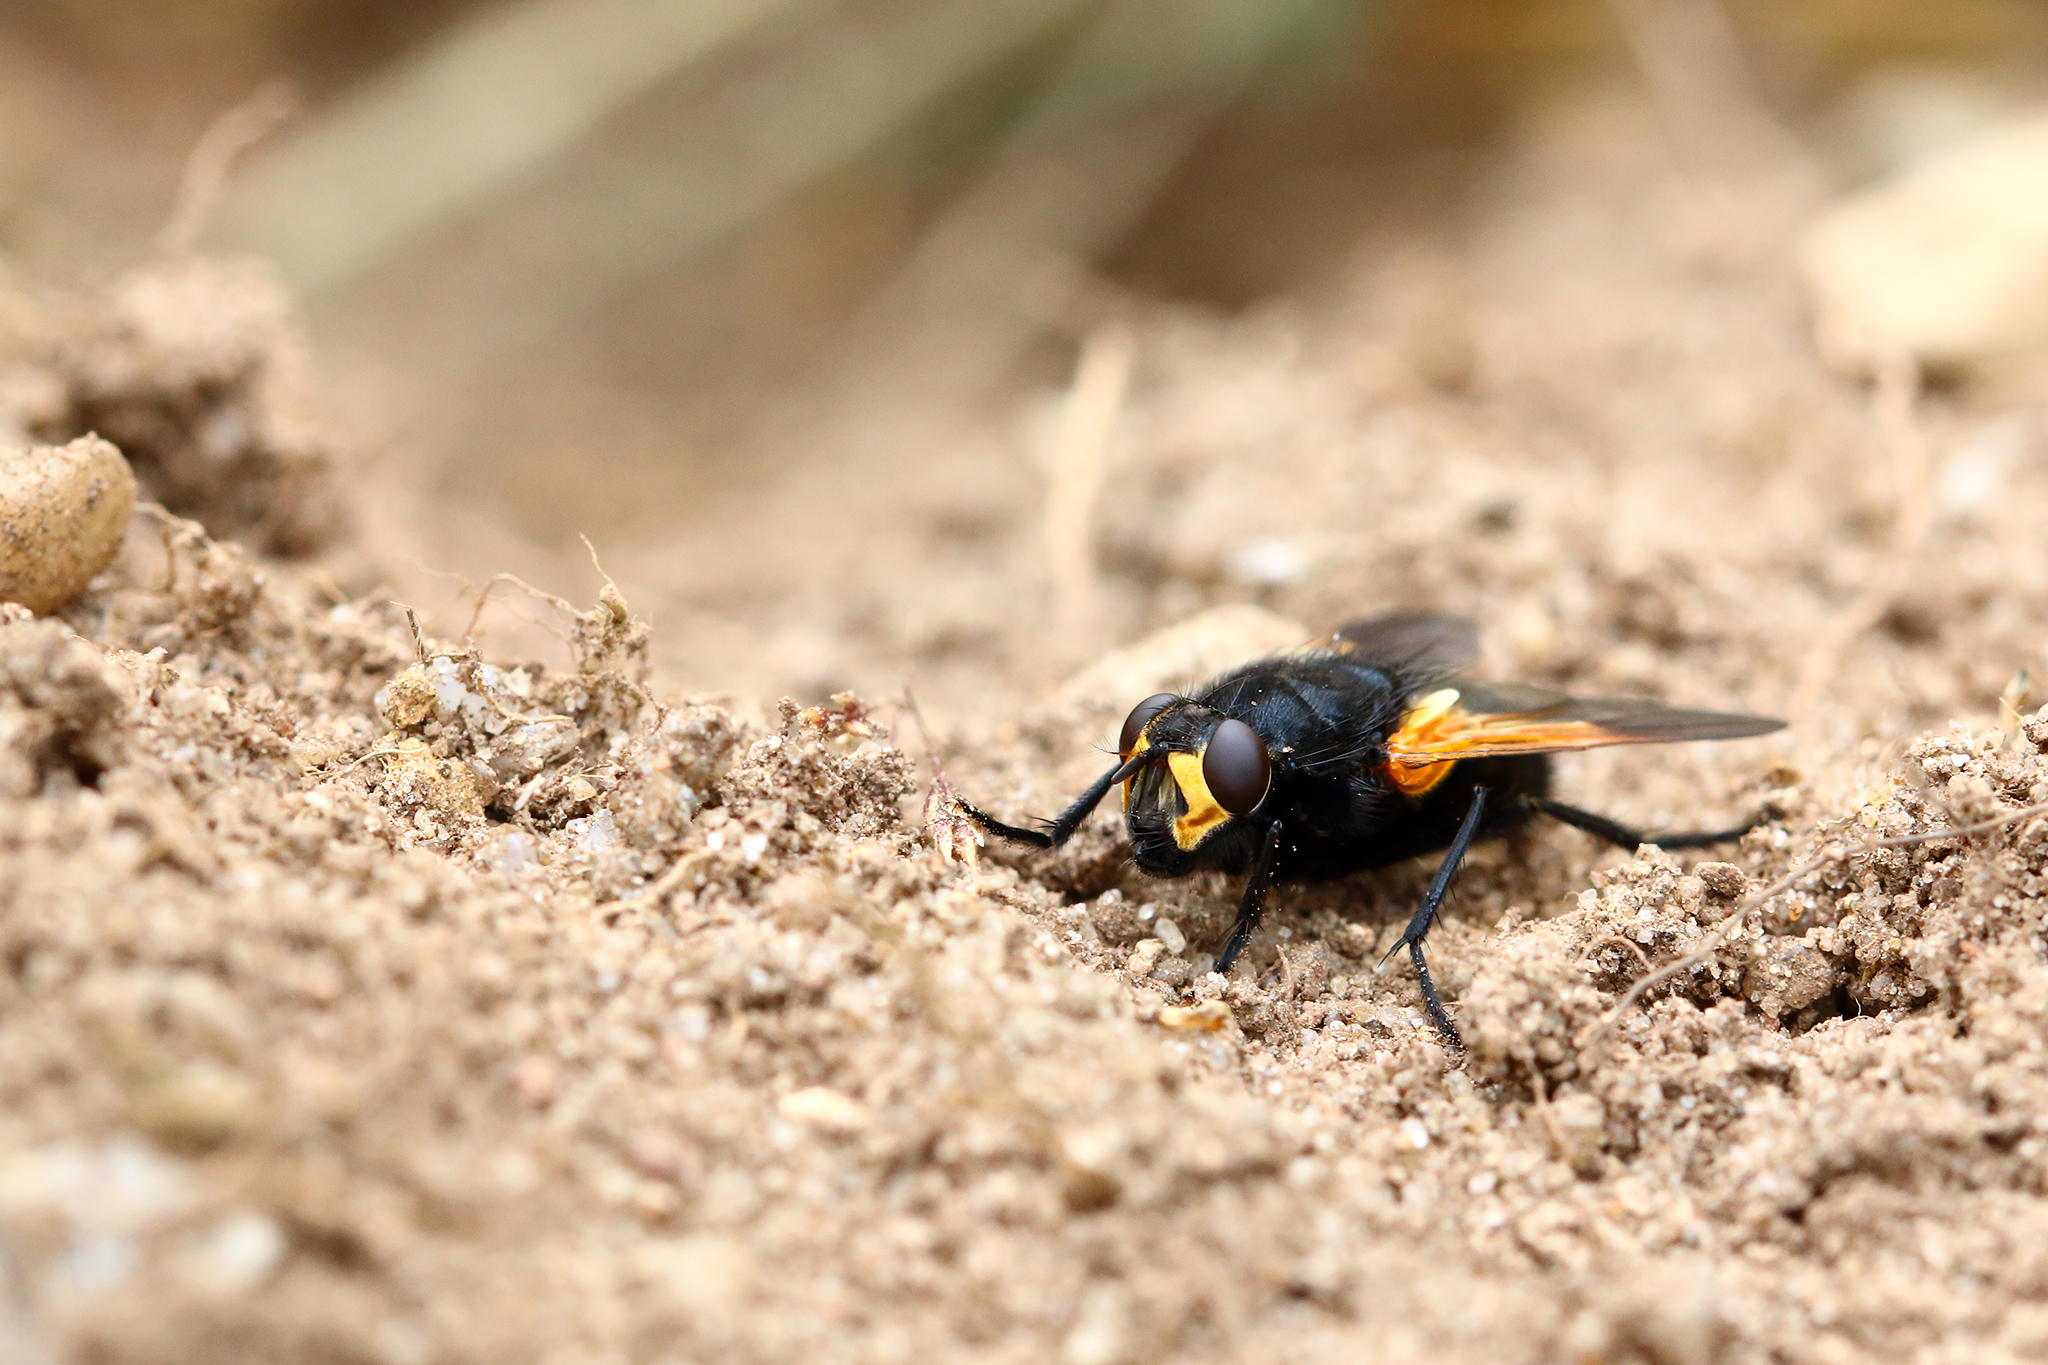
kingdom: Animalia
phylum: Arthropoda
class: Insecta
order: Diptera
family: Muscidae
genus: Mesembrina
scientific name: Mesembrina meridiana
